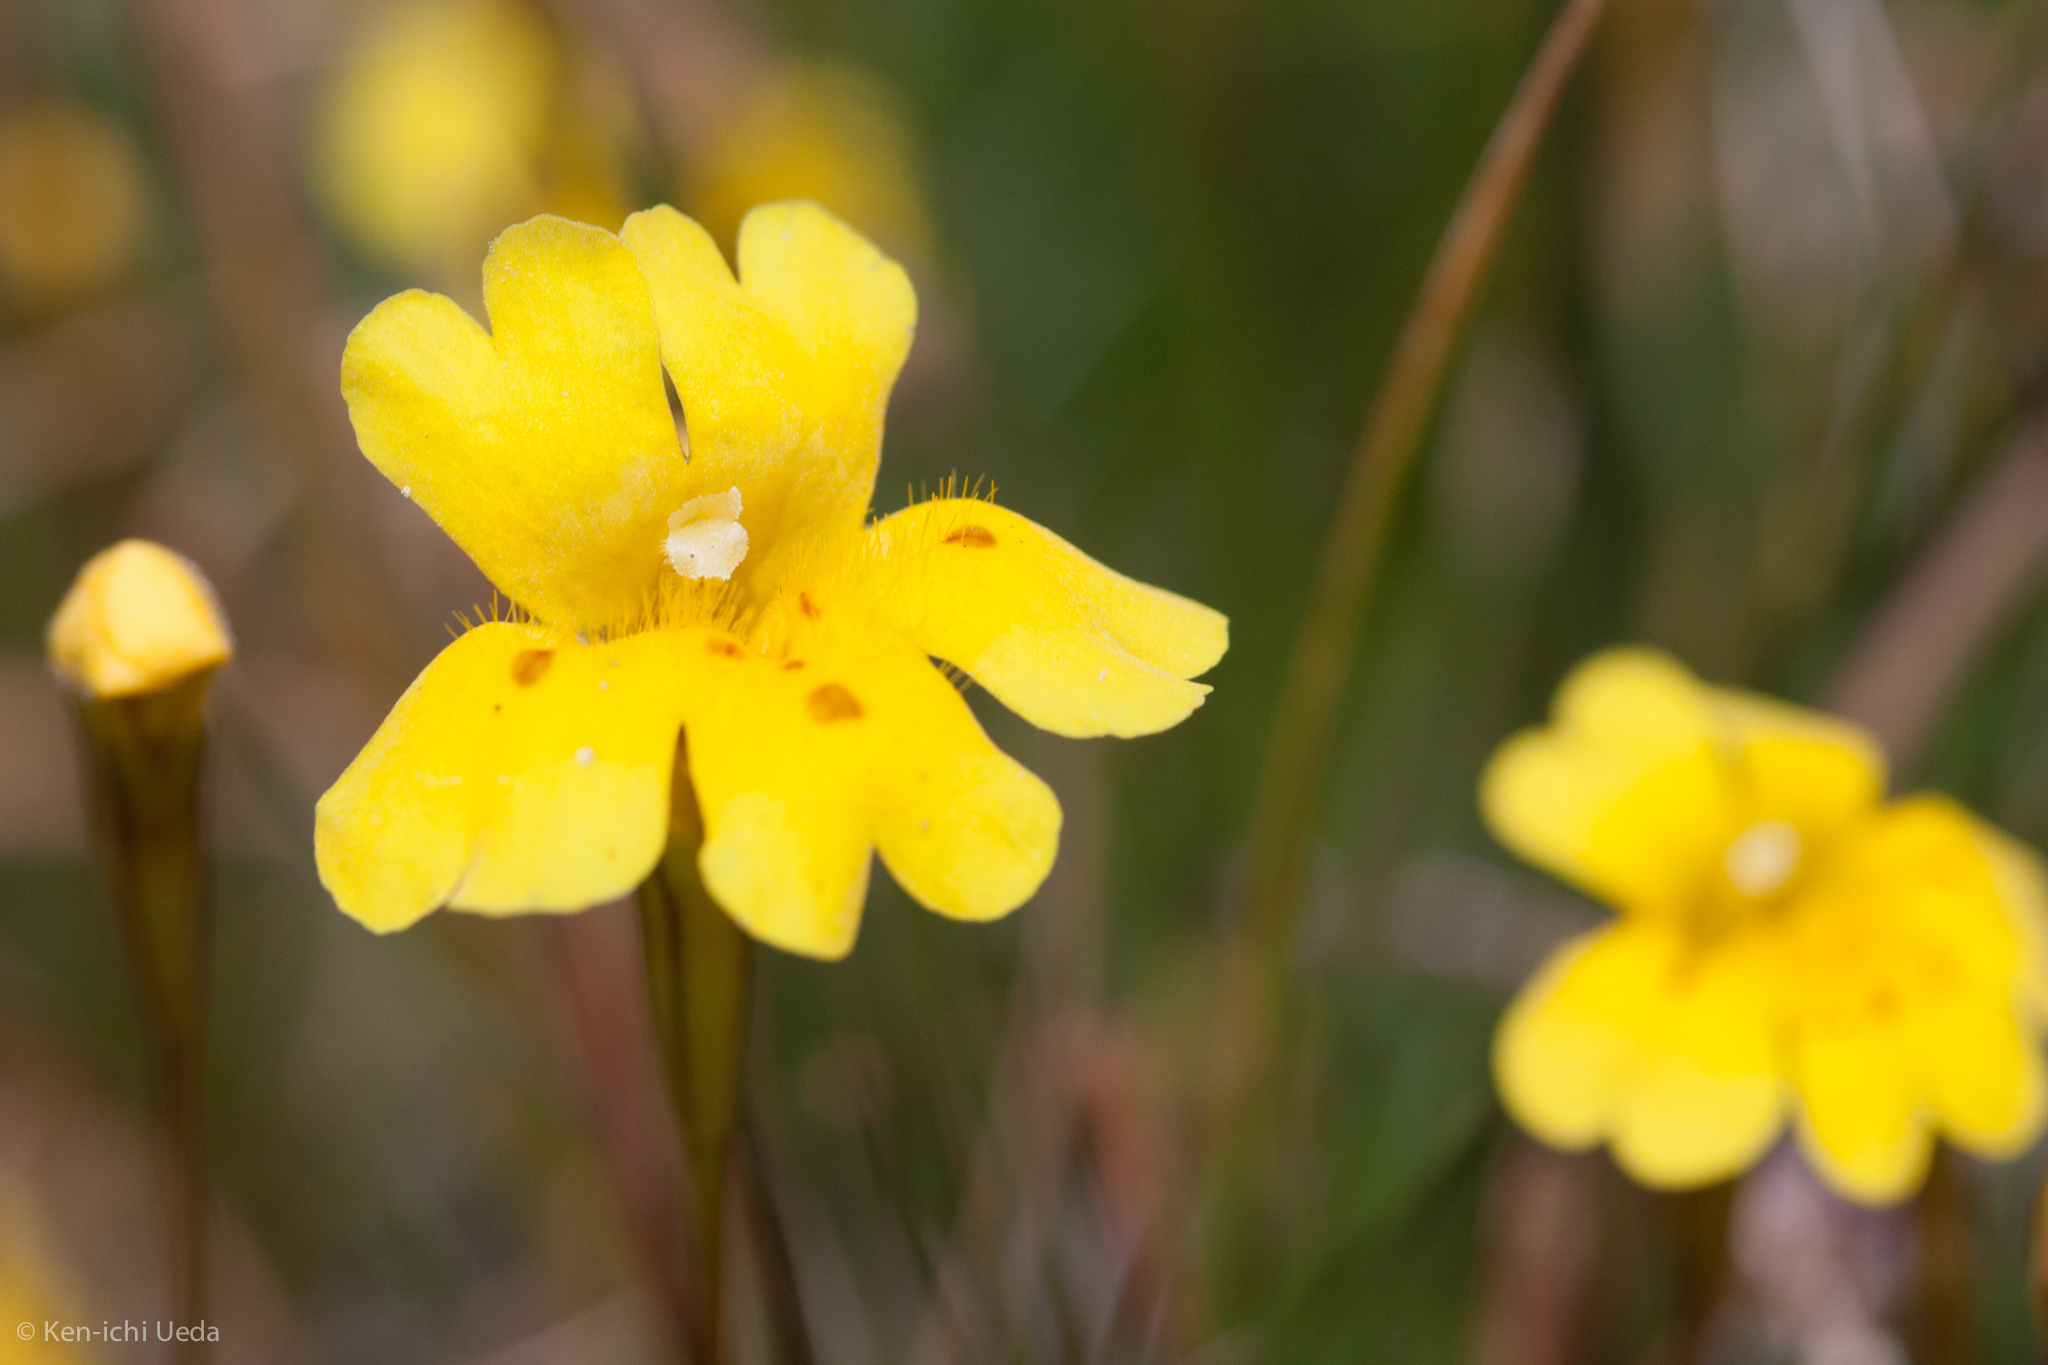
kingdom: Plantae
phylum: Tracheophyta
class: Magnoliopsida
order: Lamiales
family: Phrymaceae
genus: Erythranthe
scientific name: Erythranthe primuloides
